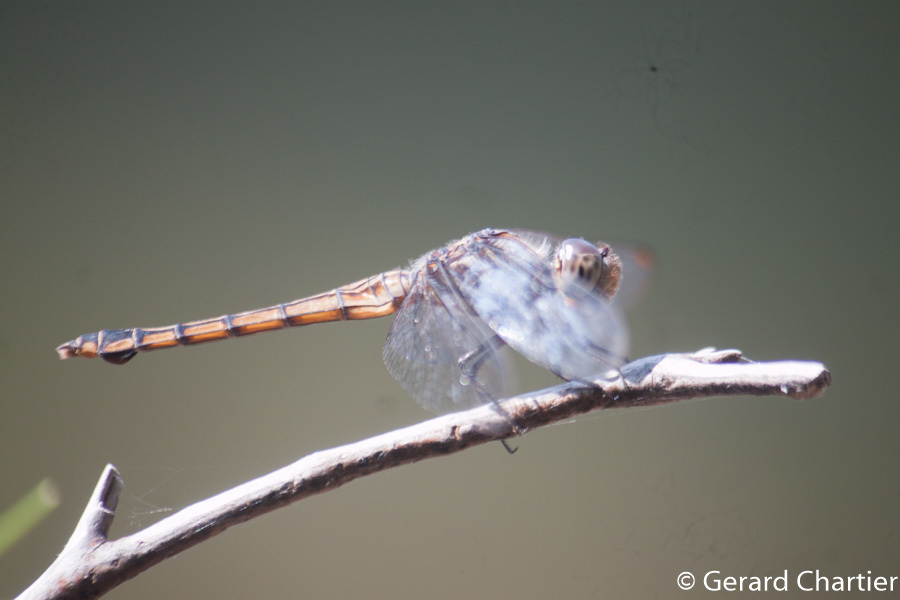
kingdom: Animalia
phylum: Arthropoda
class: Insecta
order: Odonata
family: Libellulidae
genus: Potamarcha
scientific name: Potamarcha congener
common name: Blue chaser
